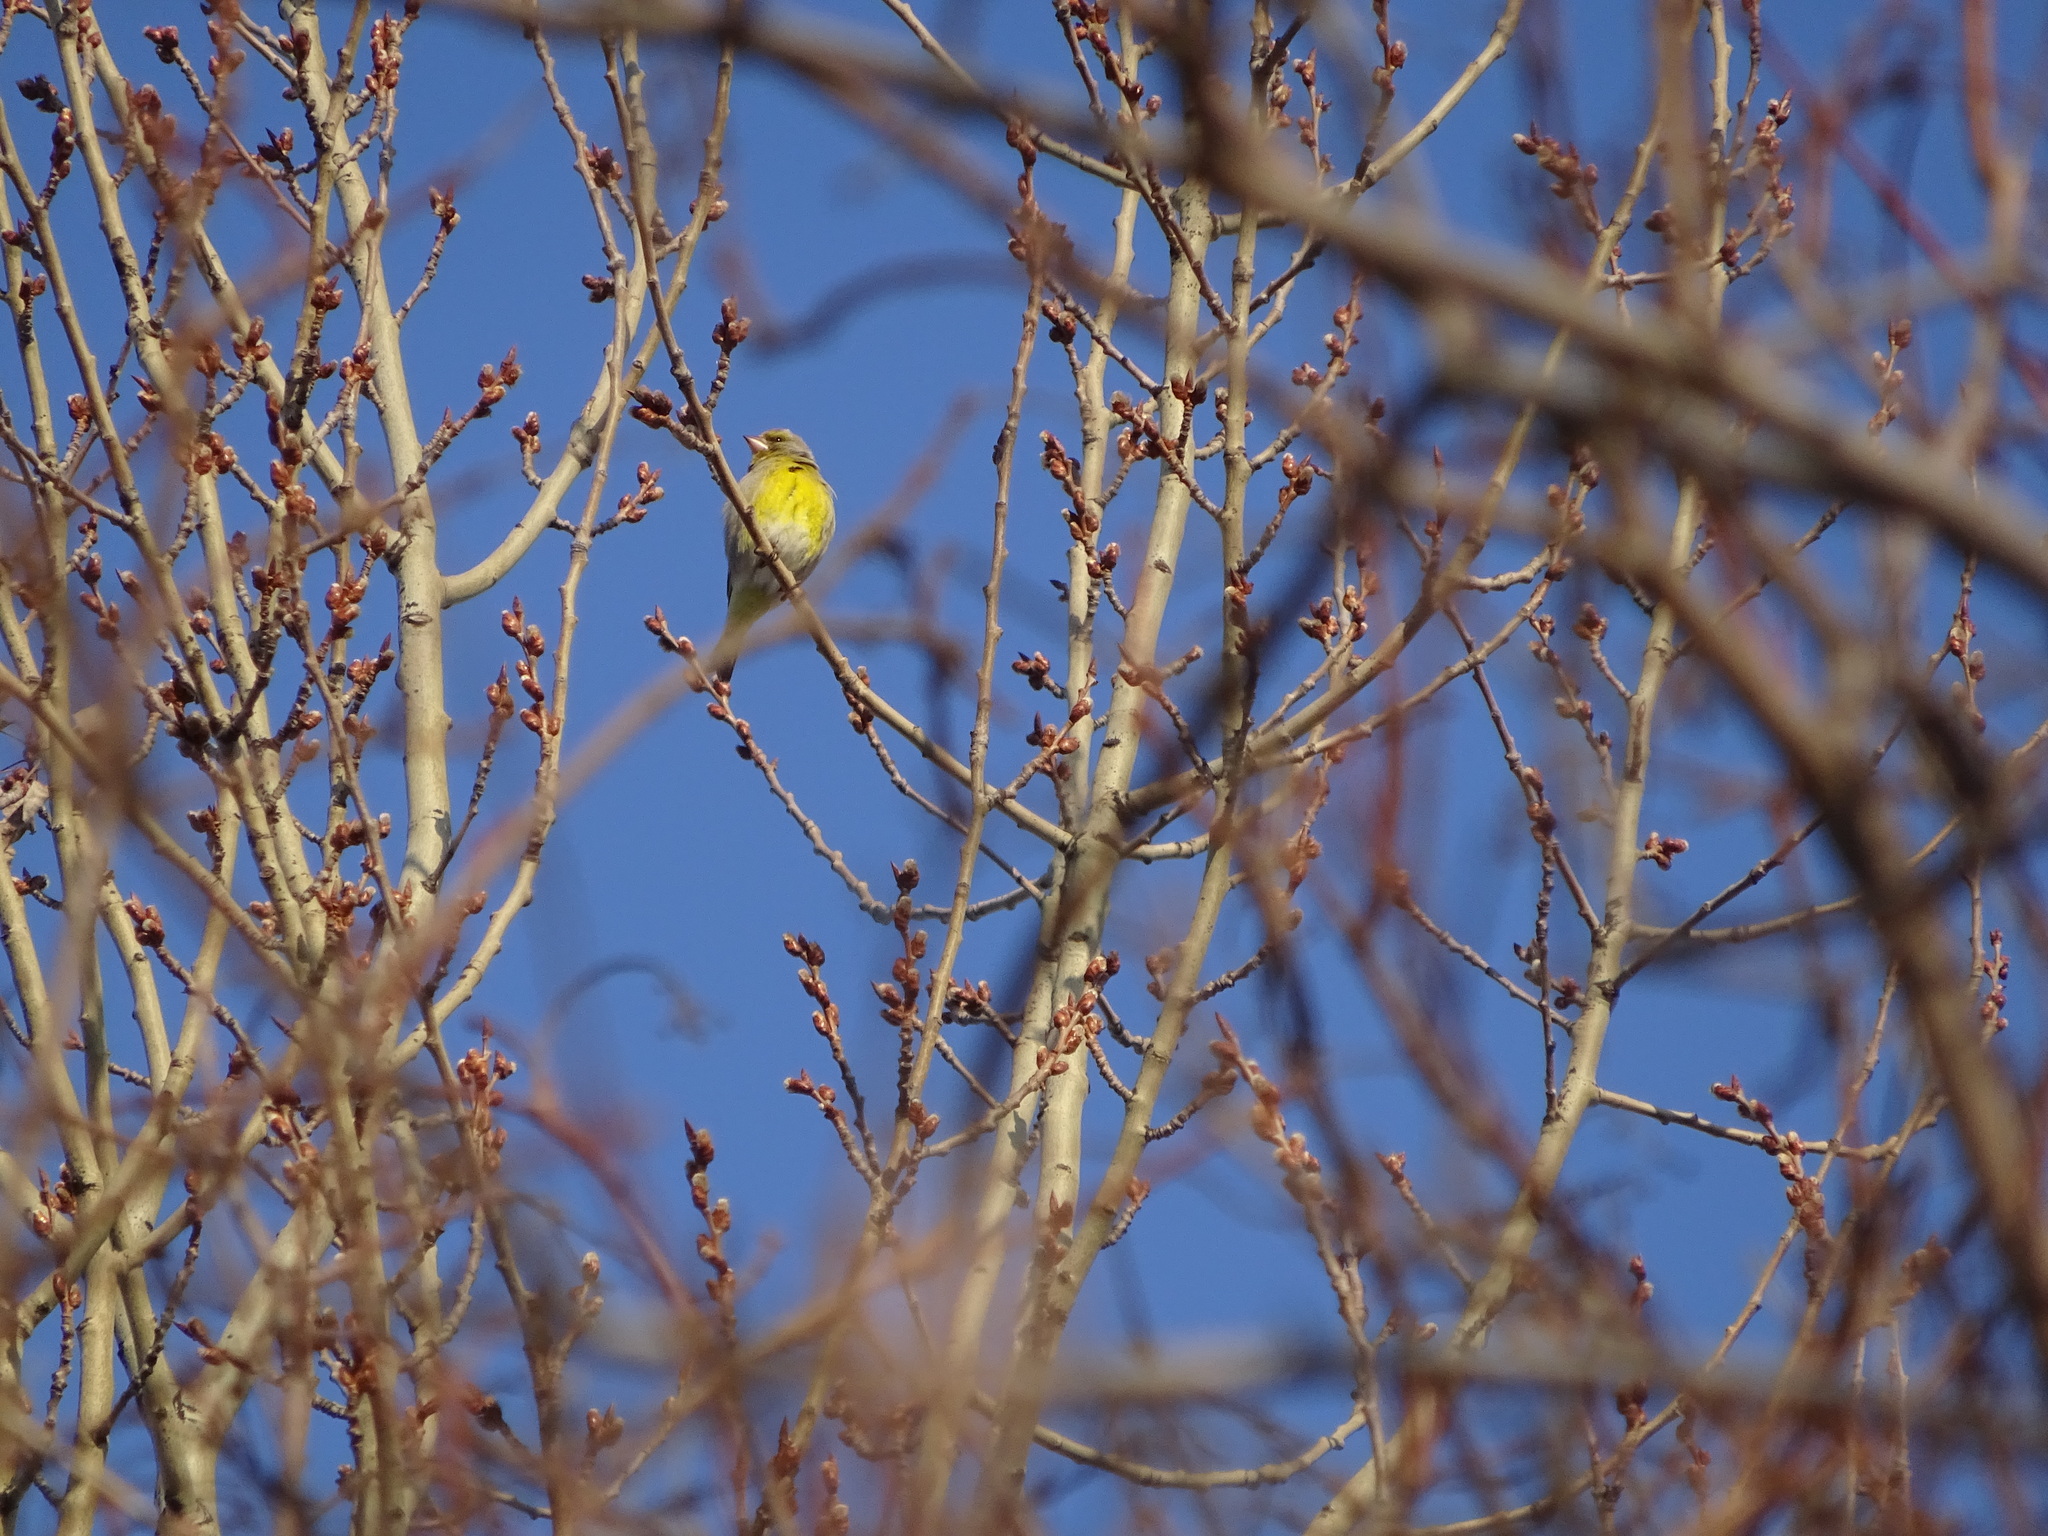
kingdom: Plantae
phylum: Tracheophyta
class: Liliopsida
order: Poales
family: Poaceae
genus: Chloris
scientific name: Chloris chloris
